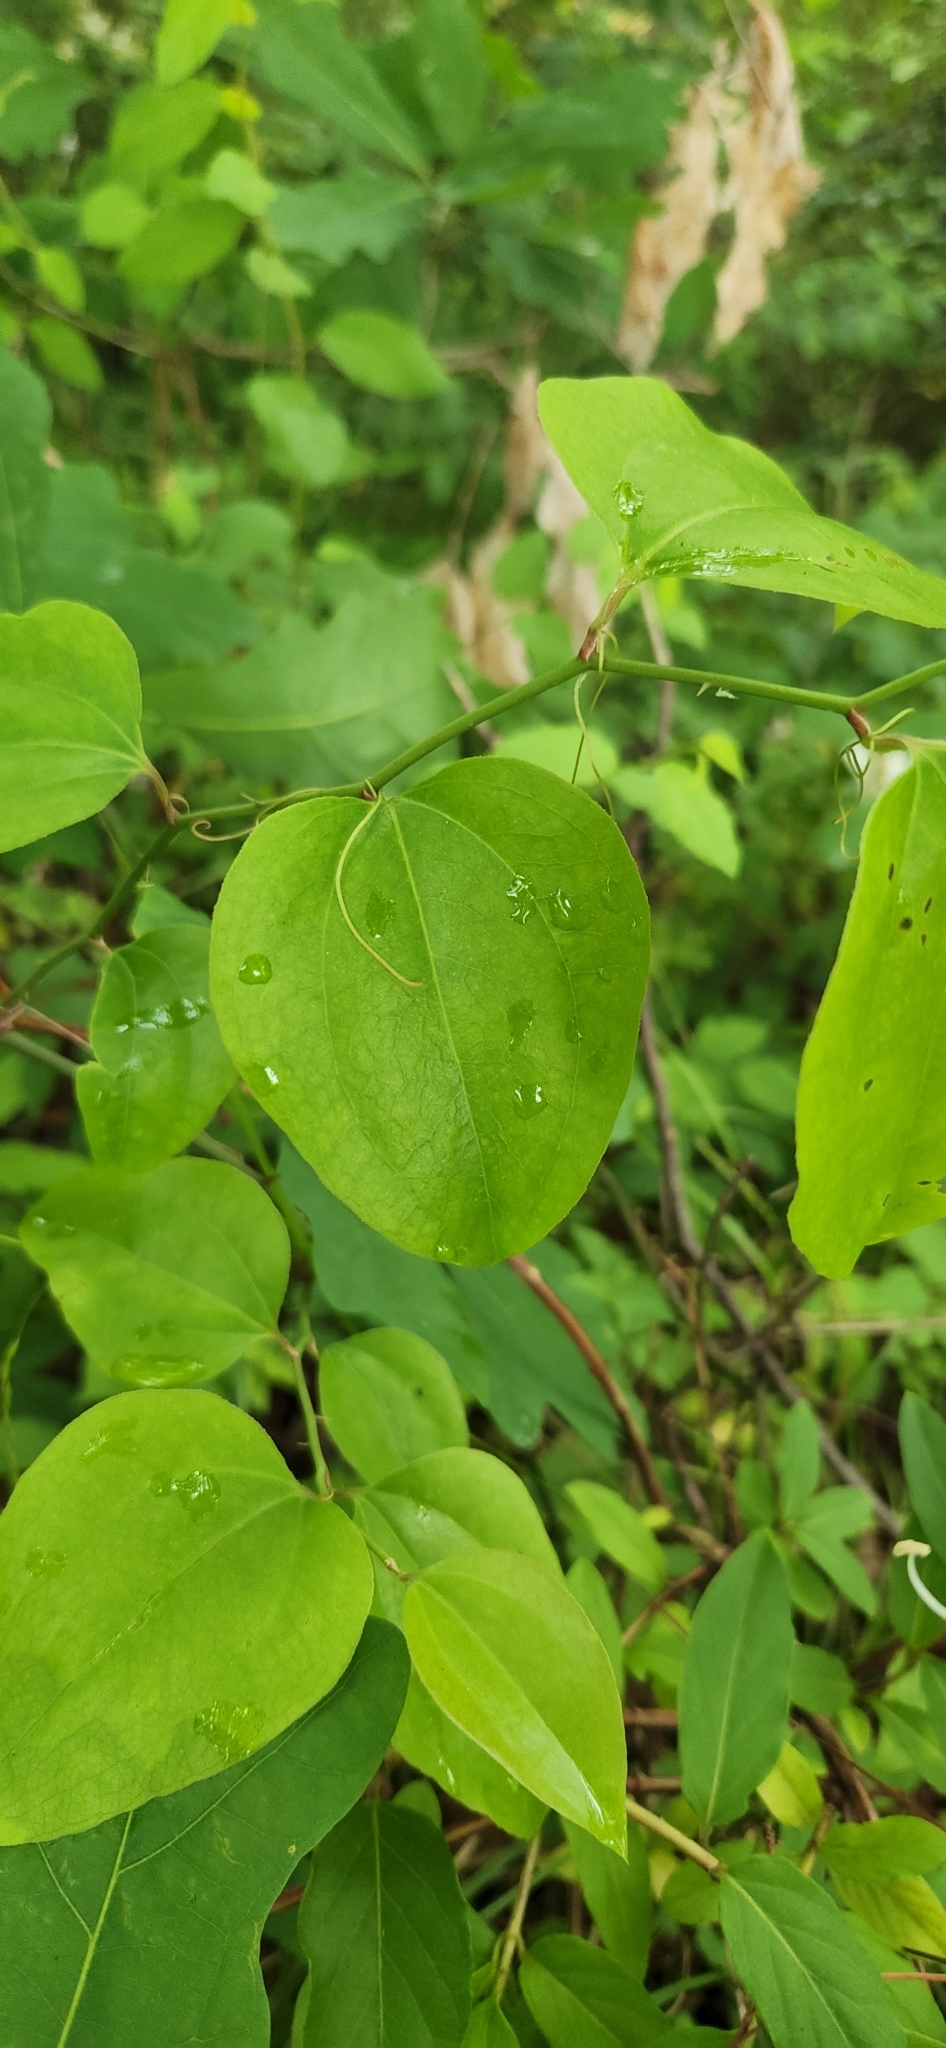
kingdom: Plantae
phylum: Tracheophyta
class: Liliopsida
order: Liliales
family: Smilacaceae
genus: Smilax
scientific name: Smilax rotundifolia
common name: Bullbriar
